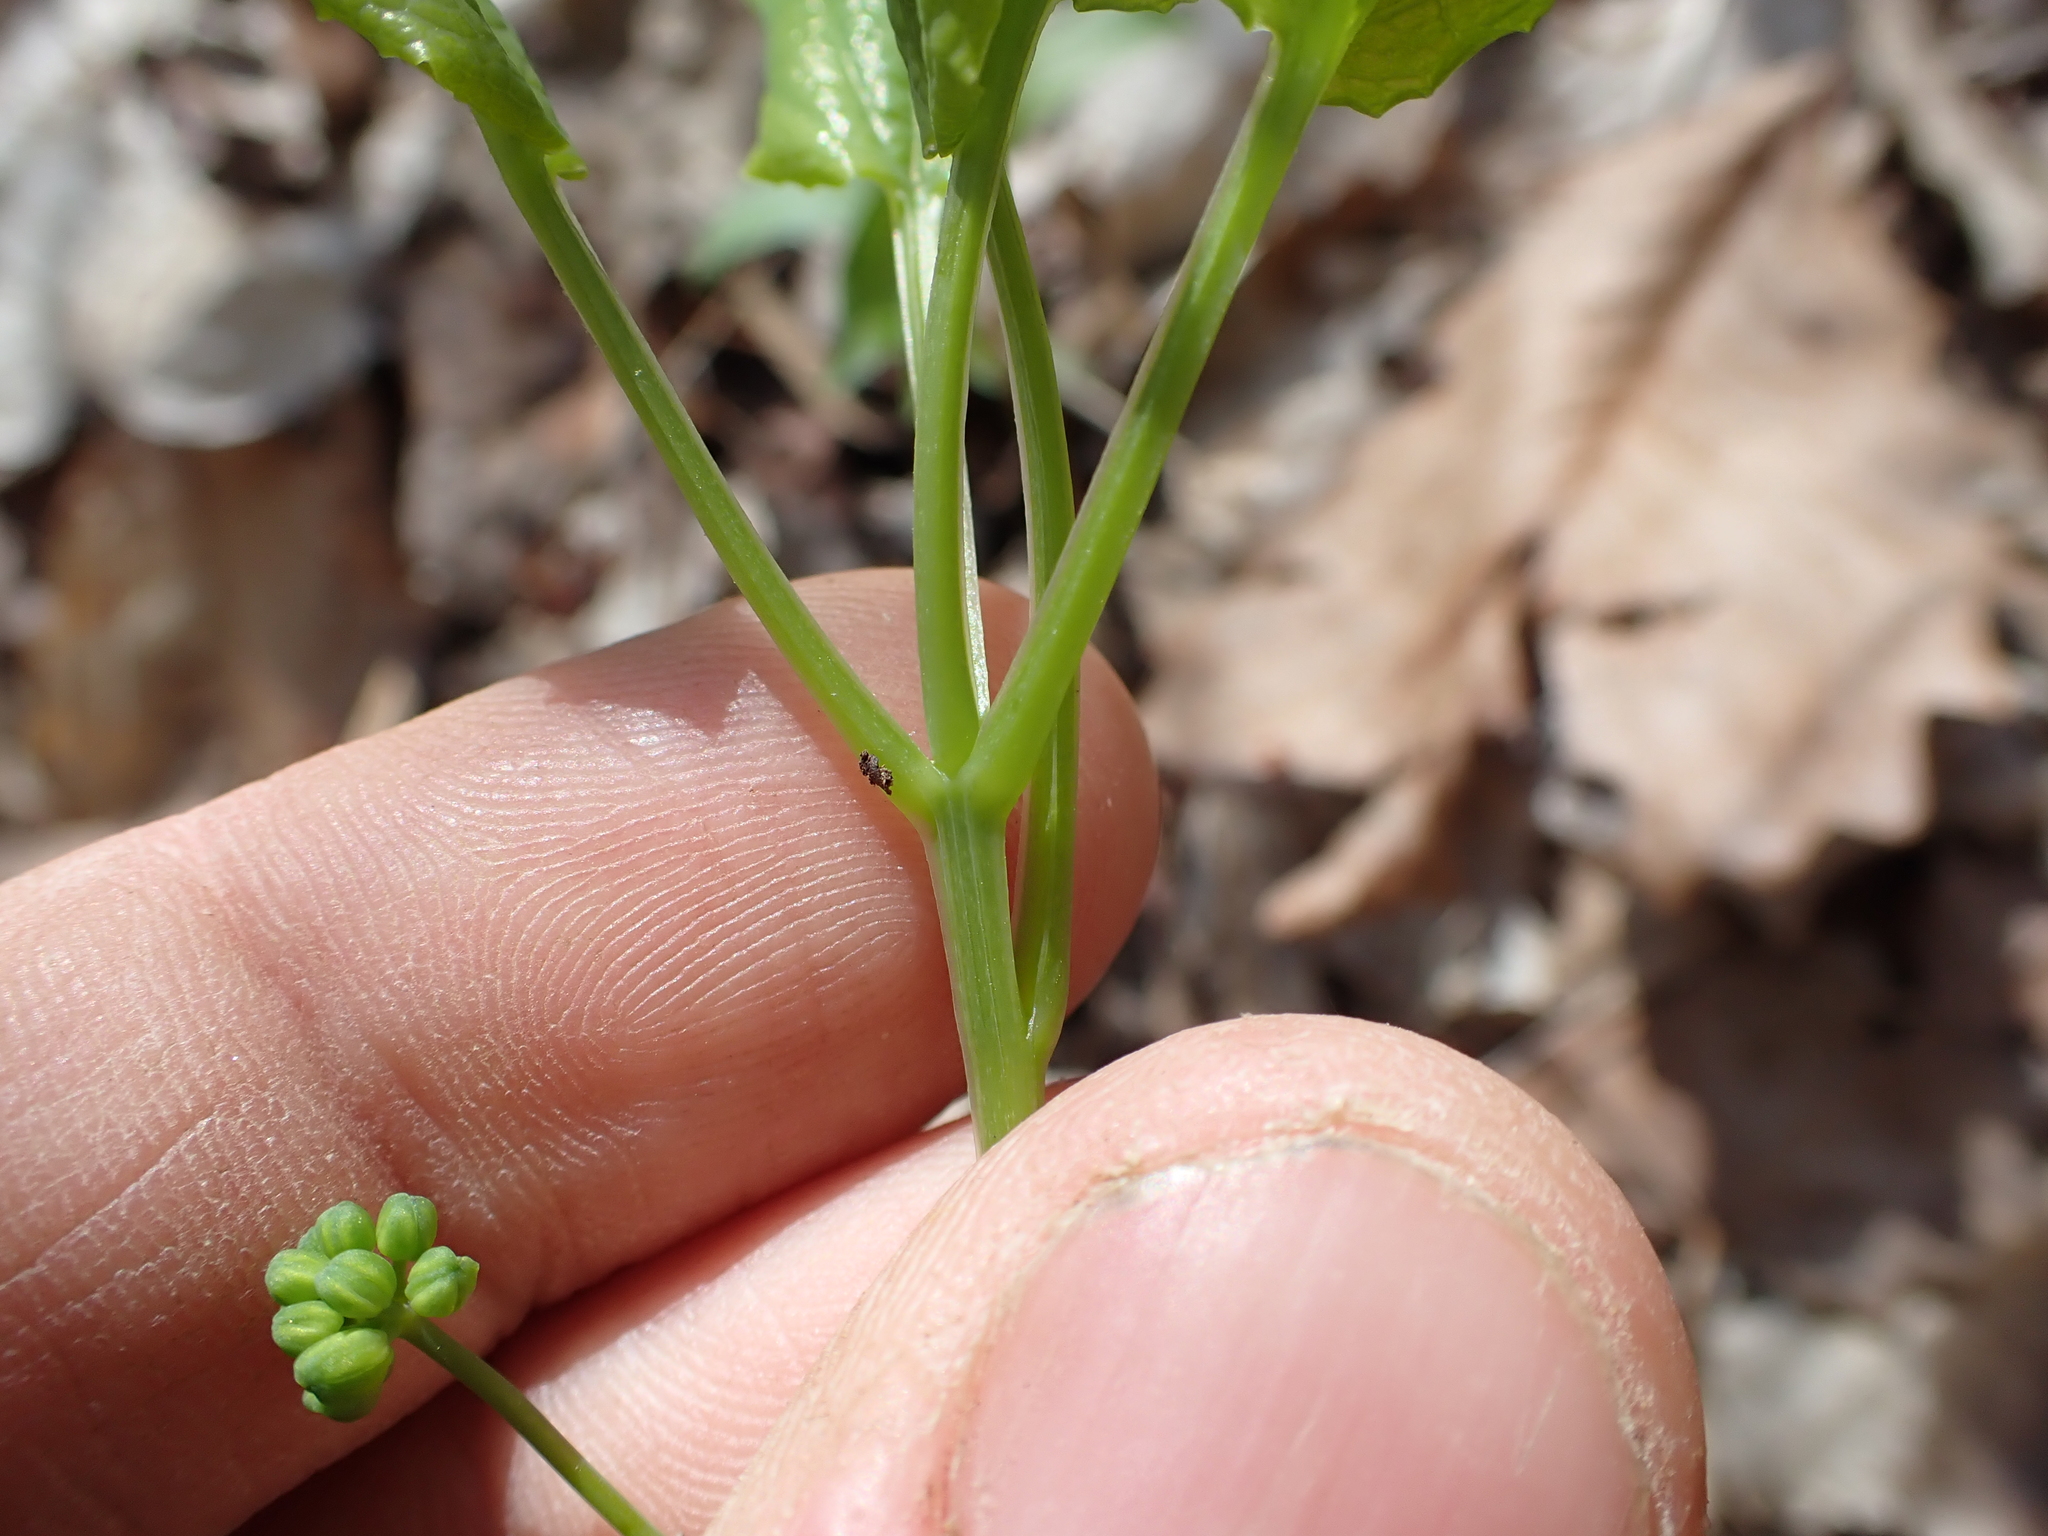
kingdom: Plantae
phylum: Tracheophyta
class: Liliopsida
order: Liliales
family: Smilacaceae
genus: Smilax
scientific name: Smilax ecirrhata
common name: Upright carrionflower
